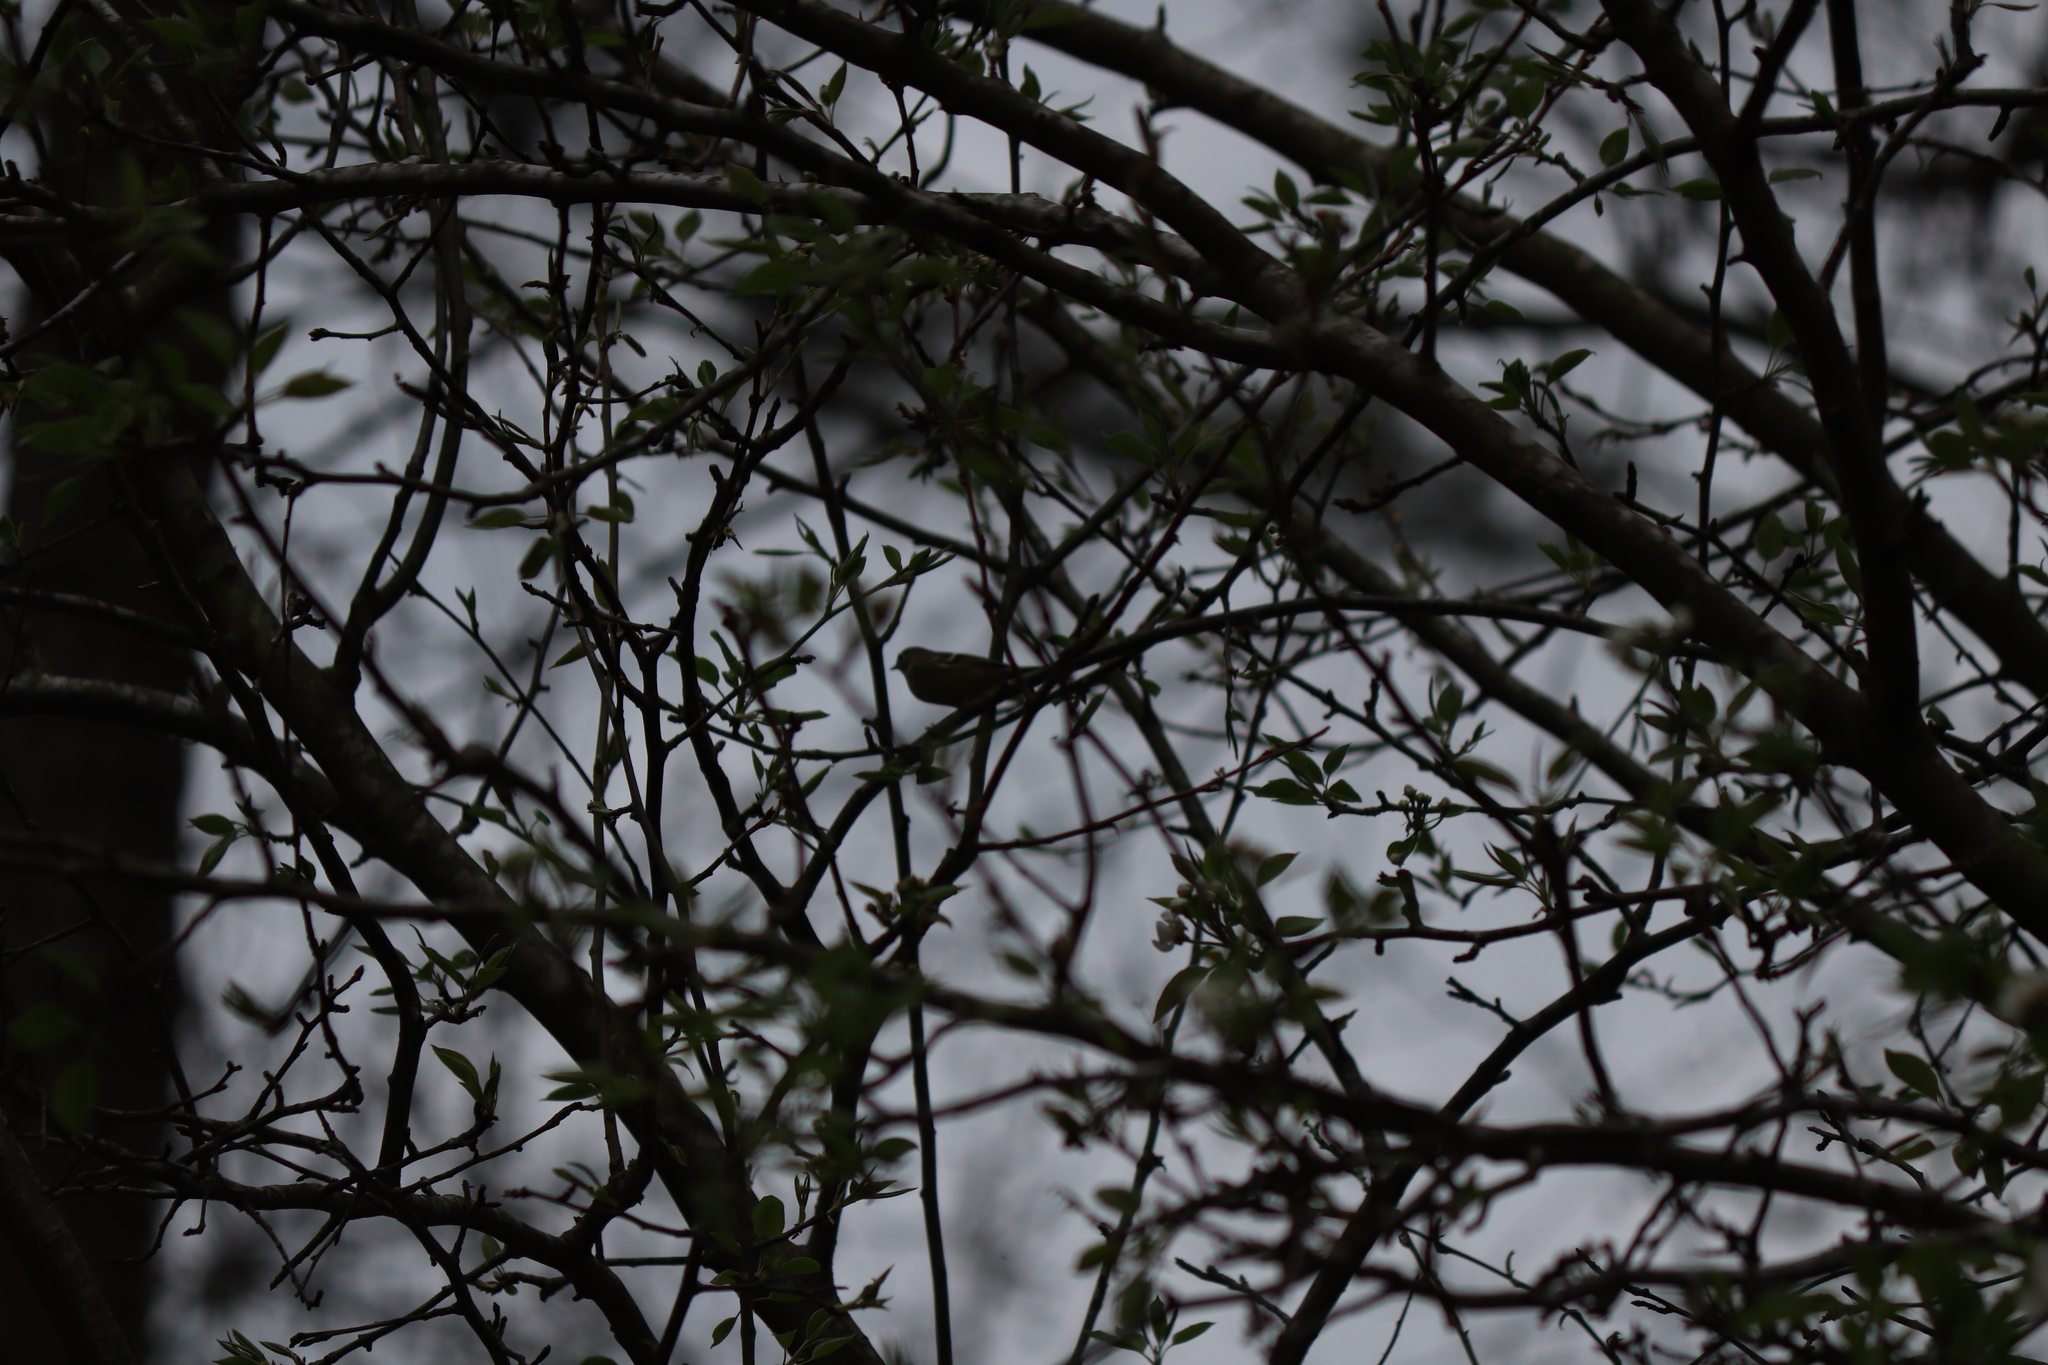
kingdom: Animalia
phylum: Chordata
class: Aves
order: Passeriformes
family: Regulidae
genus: Regulus
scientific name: Regulus calendula
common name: Ruby-crowned kinglet
